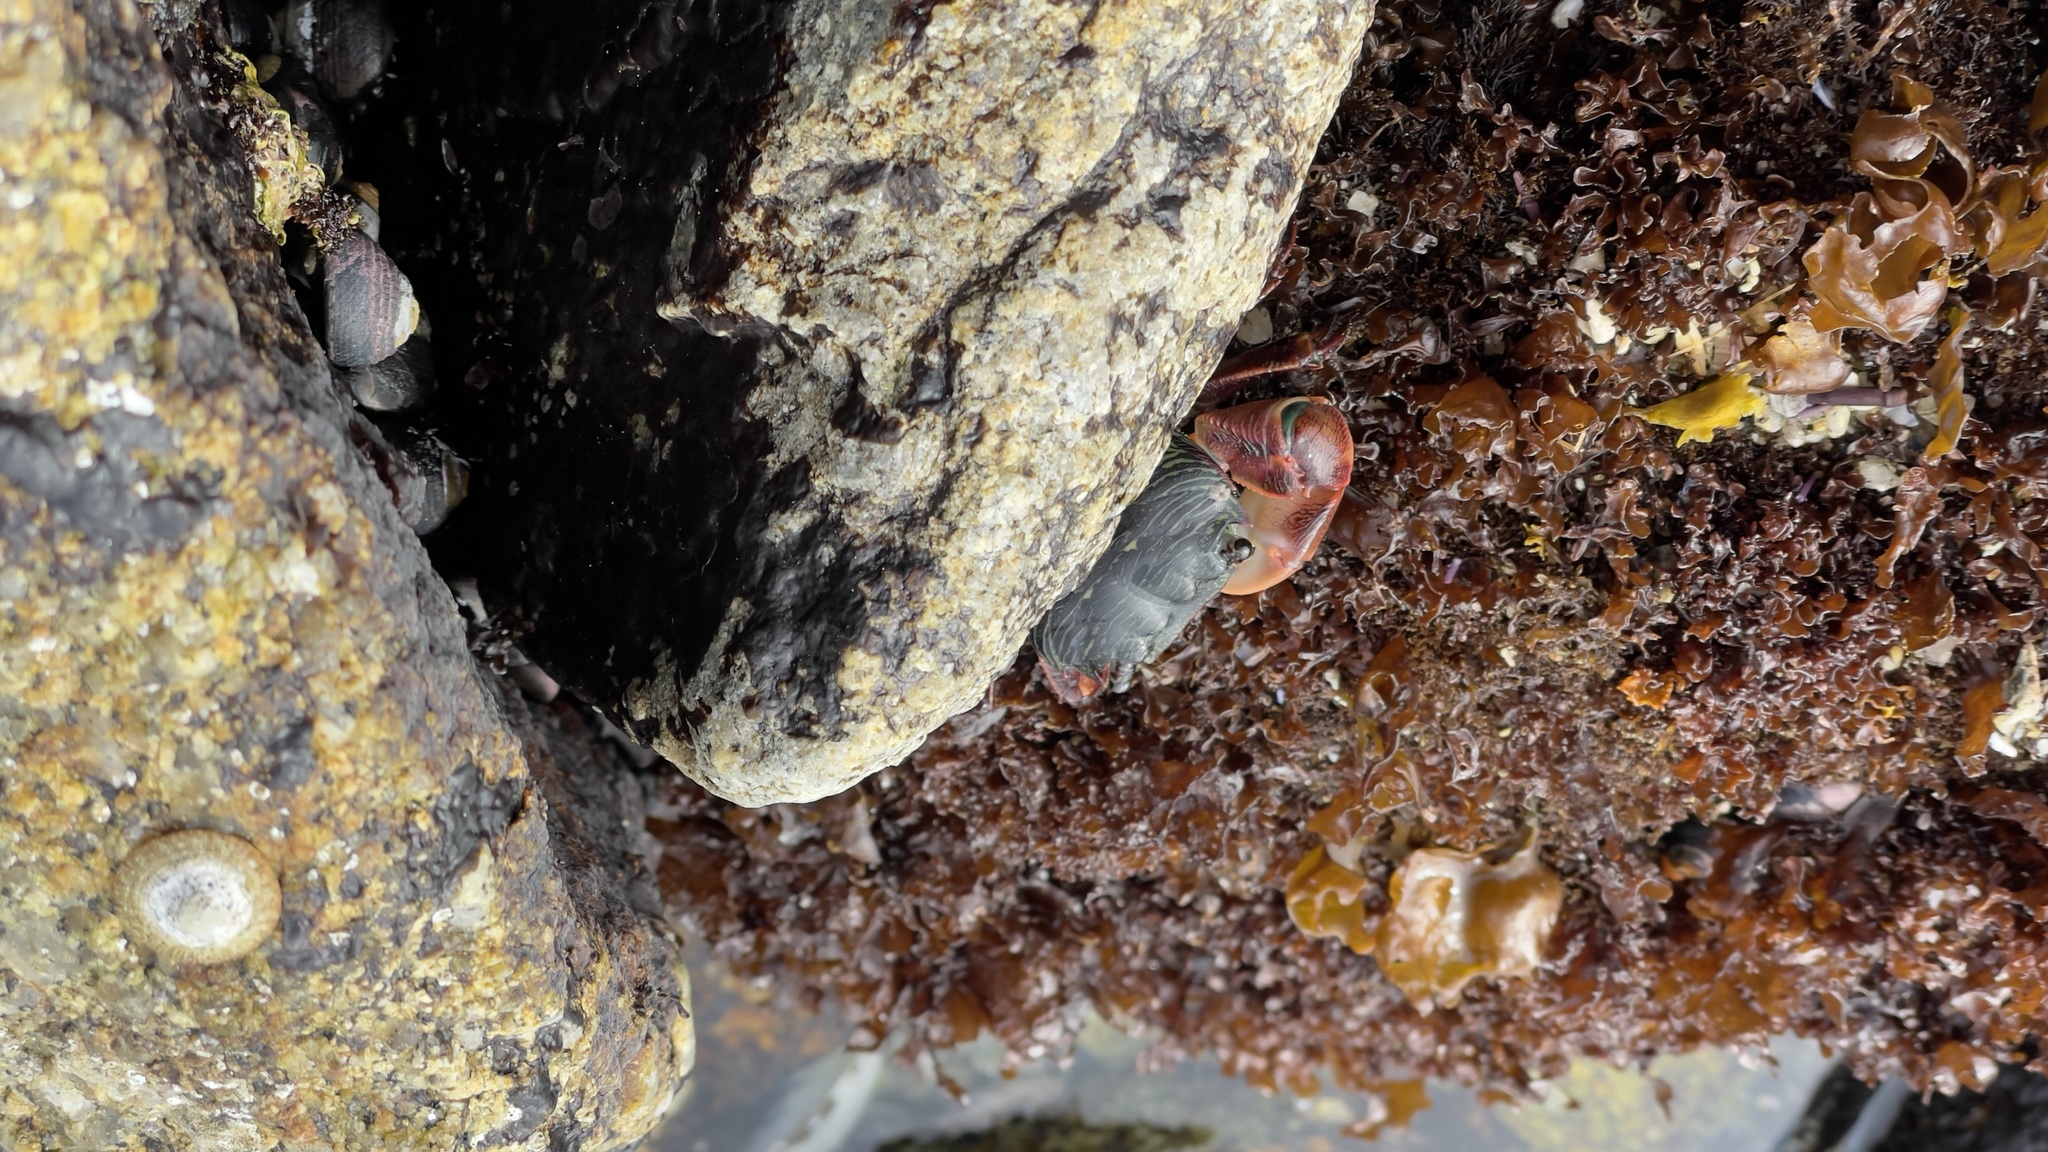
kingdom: Animalia
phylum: Arthropoda
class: Malacostraca
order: Decapoda
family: Grapsidae
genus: Pachygrapsus
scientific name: Pachygrapsus crassipes
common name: Striped shore crab
